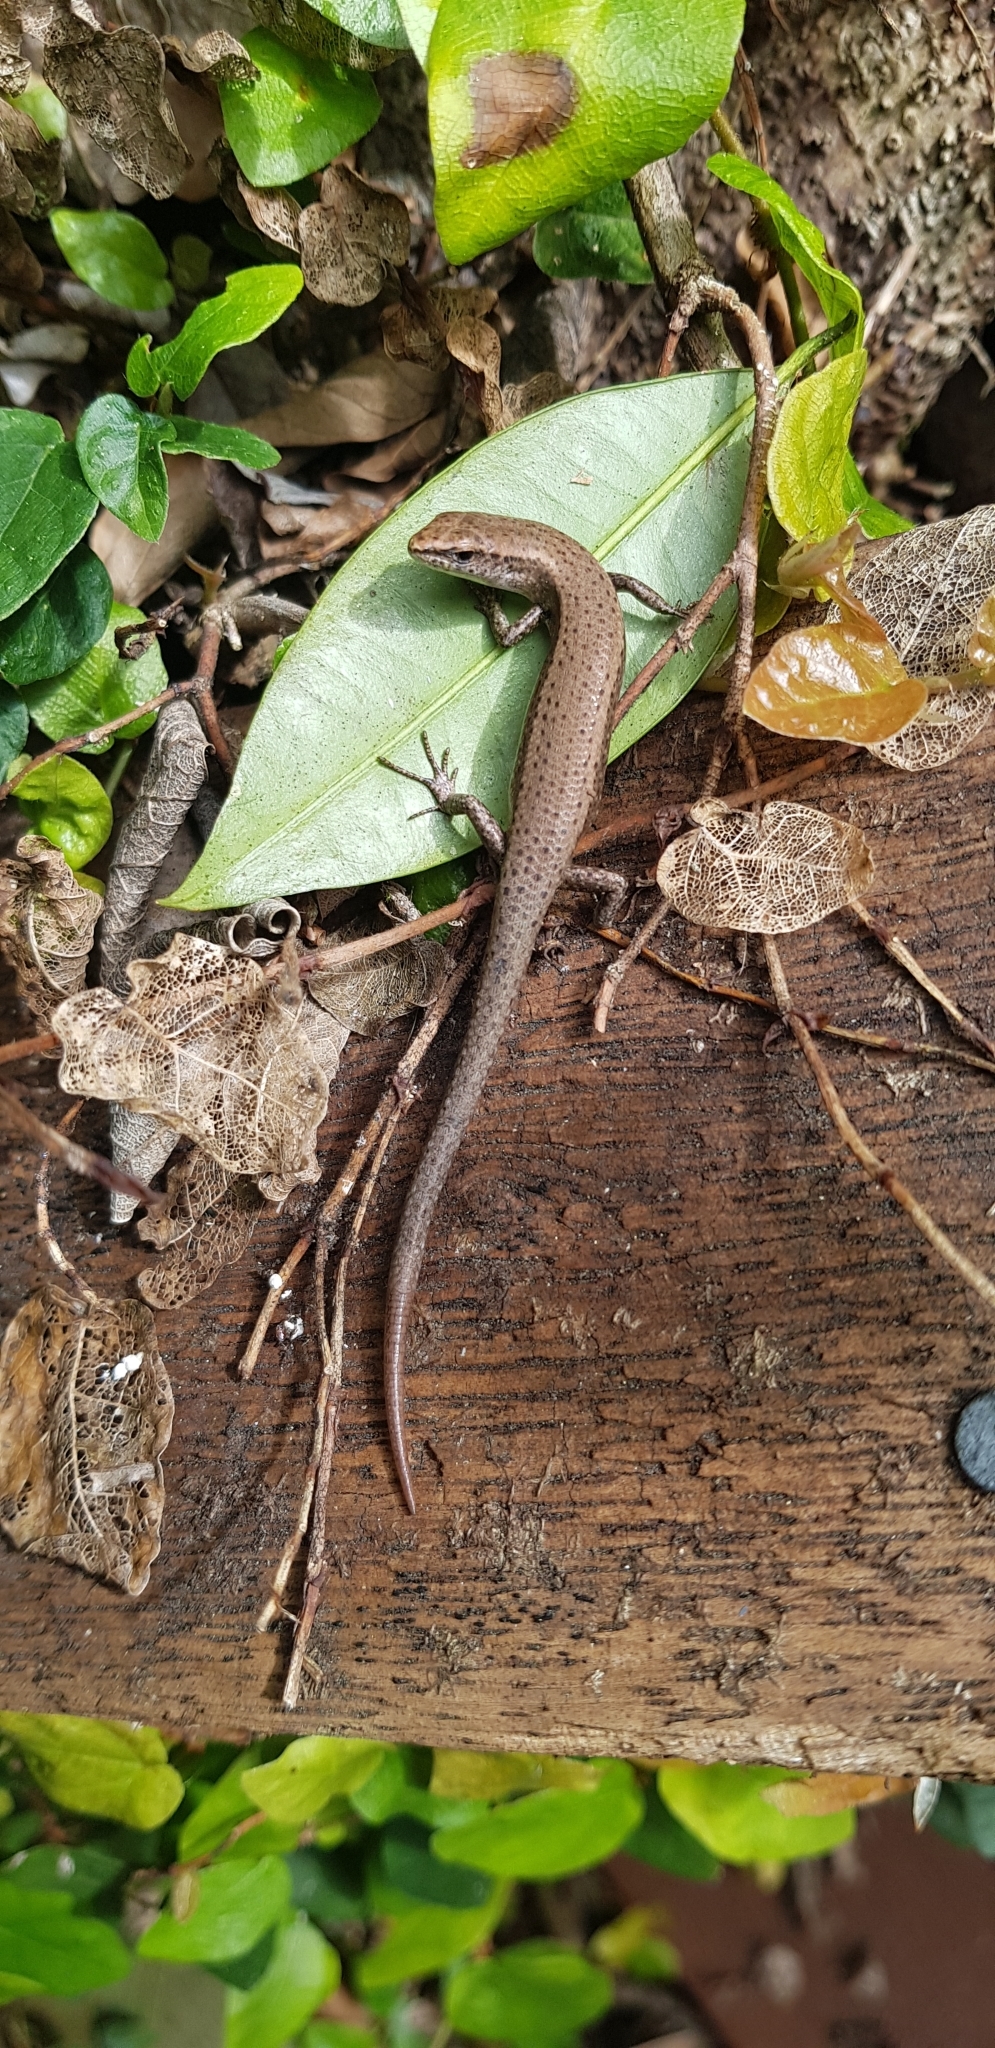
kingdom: Animalia
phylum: Chordata
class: Squamata
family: Scincidae
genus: Lampropholis
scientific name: Lampropholis delicata
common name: Plague skink
